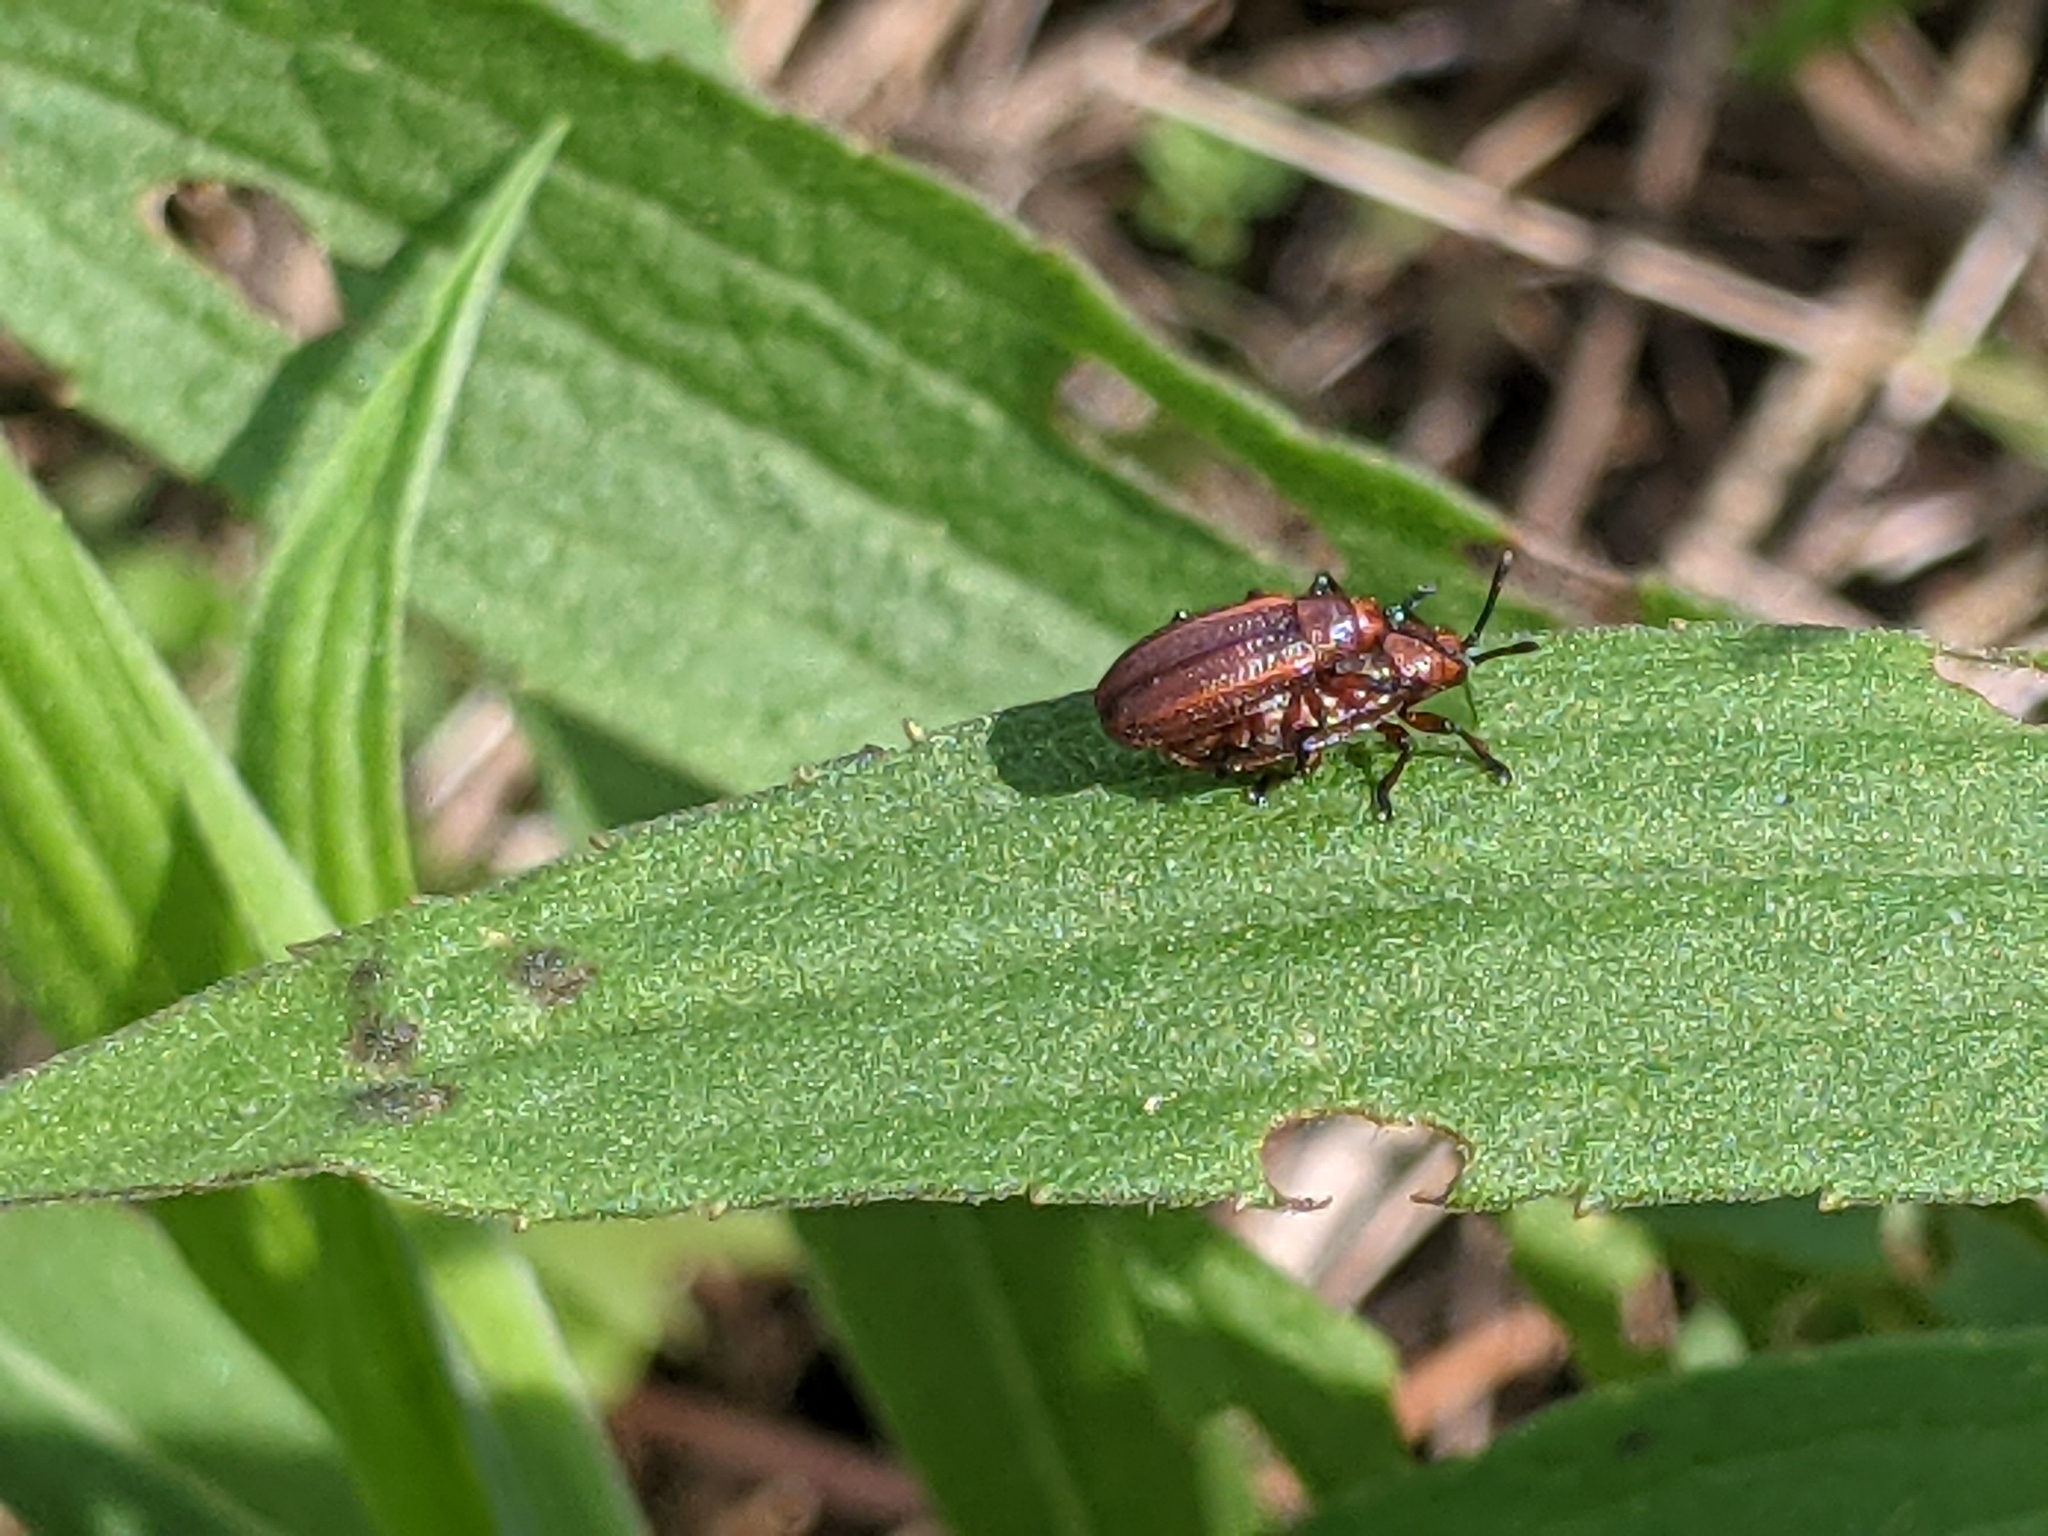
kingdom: Animalia
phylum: Arthropoda
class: Insecta
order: Coleoptera
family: Chrysomelidae
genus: Microrhopala
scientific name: Microrhopala vittata
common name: Goldenrod leaf miner beetle
